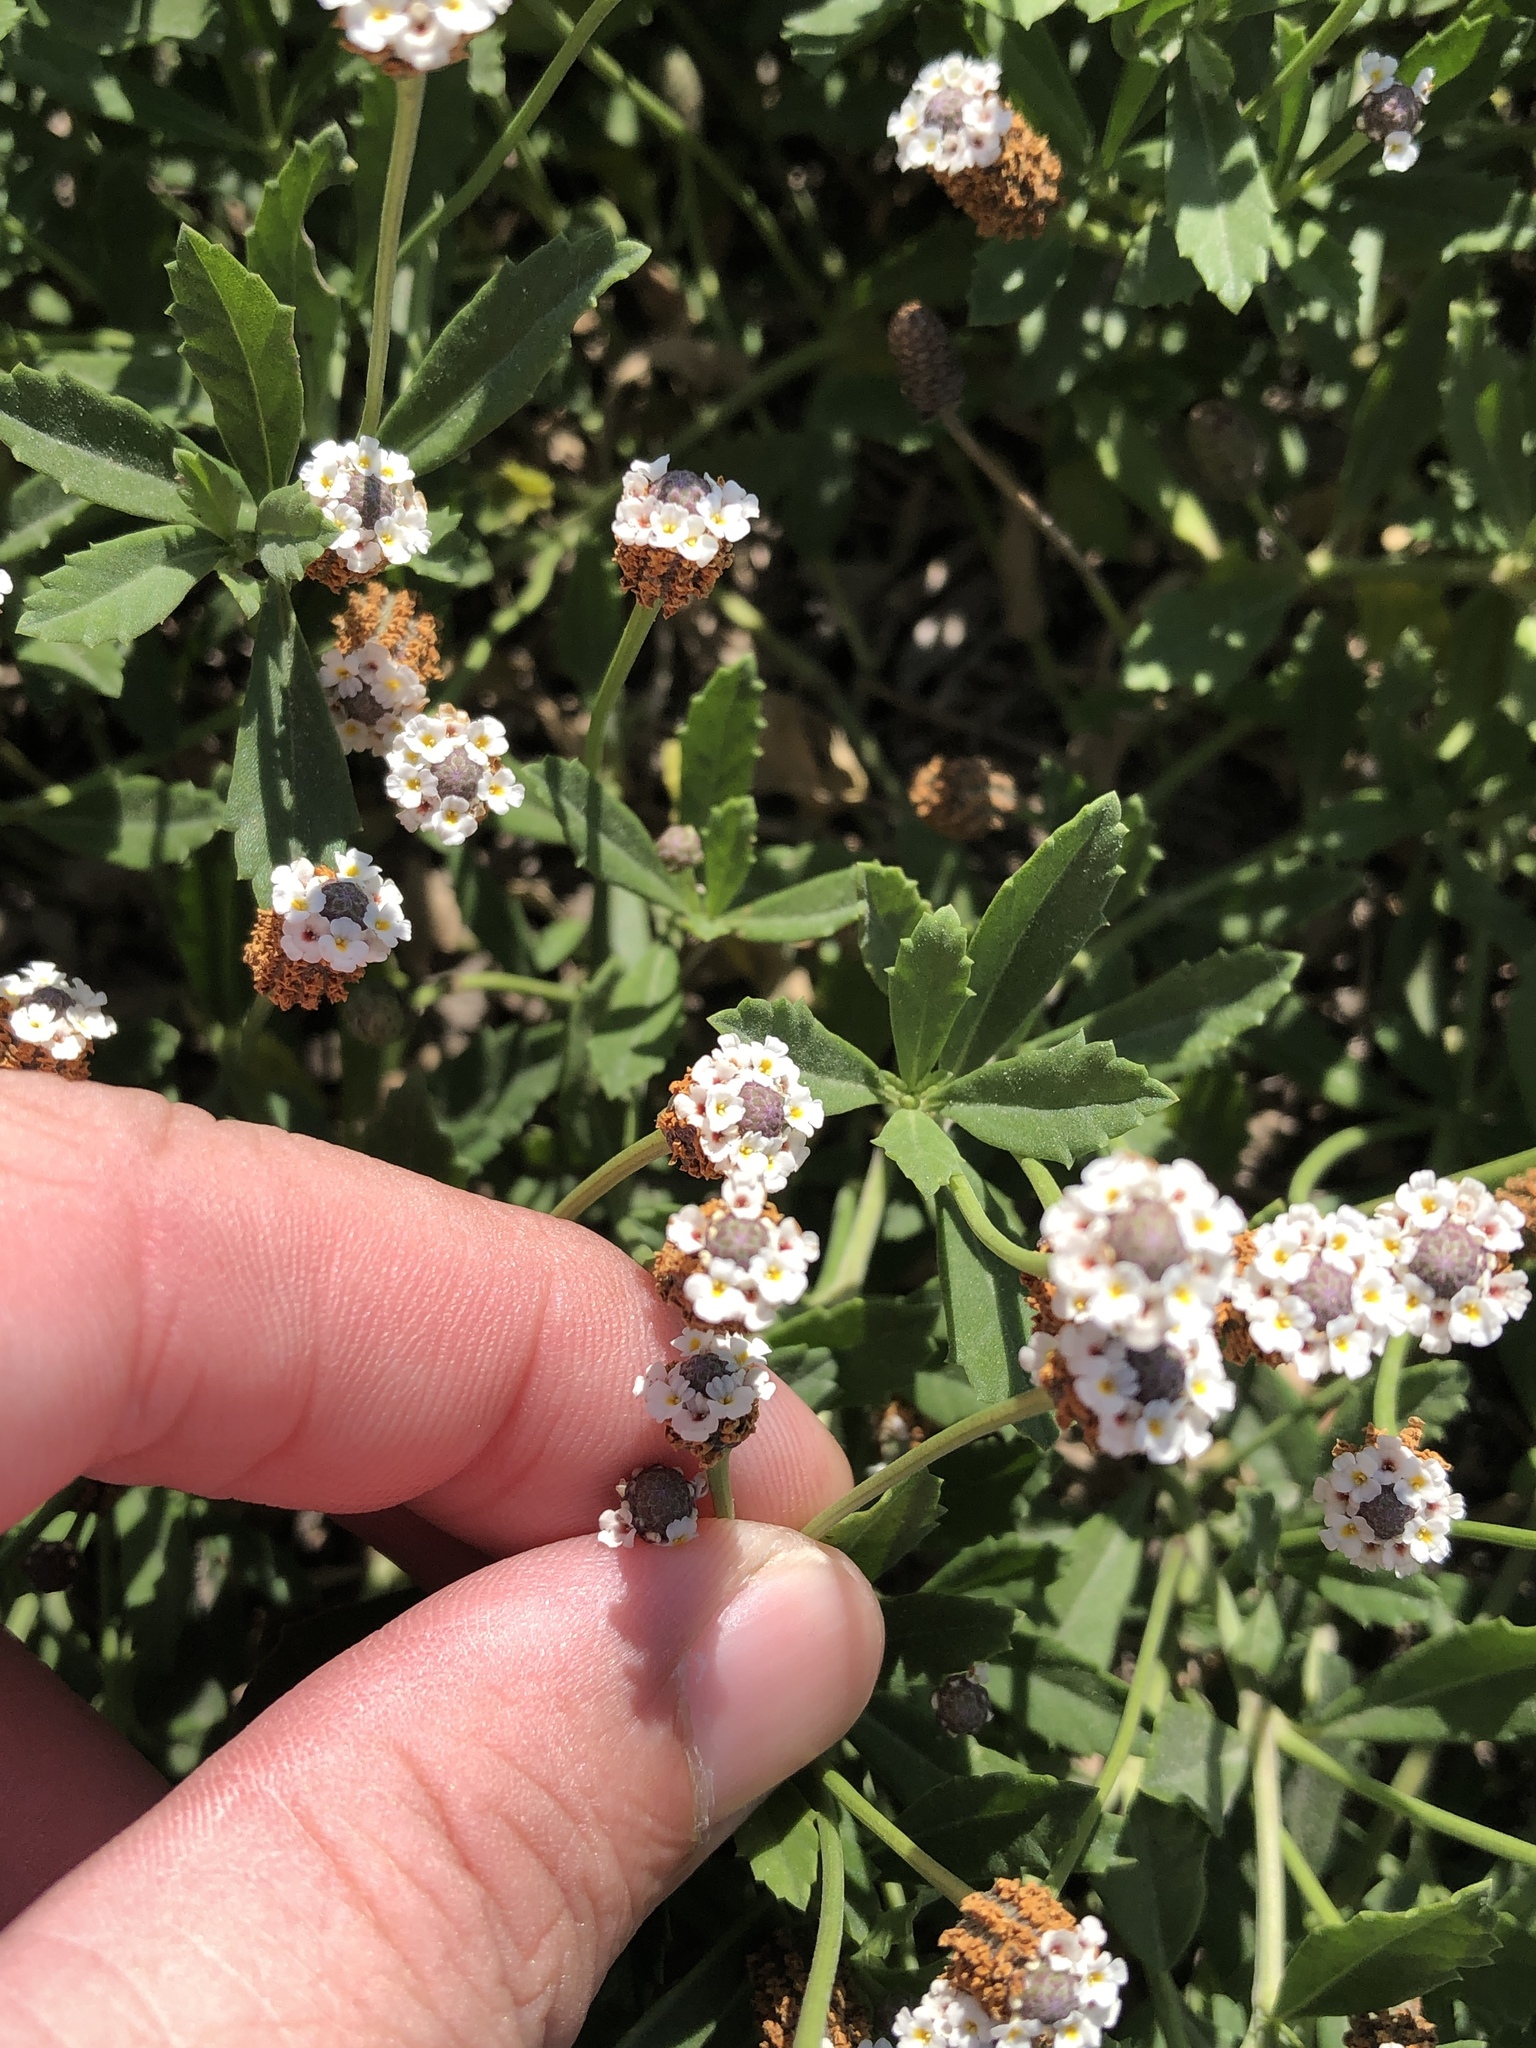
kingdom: Plantae
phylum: Tracheophyta
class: Magnoliopsida
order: Lamiales
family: Verbenaceae
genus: Phyla
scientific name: Phyla nodiflora
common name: Frogfruit
